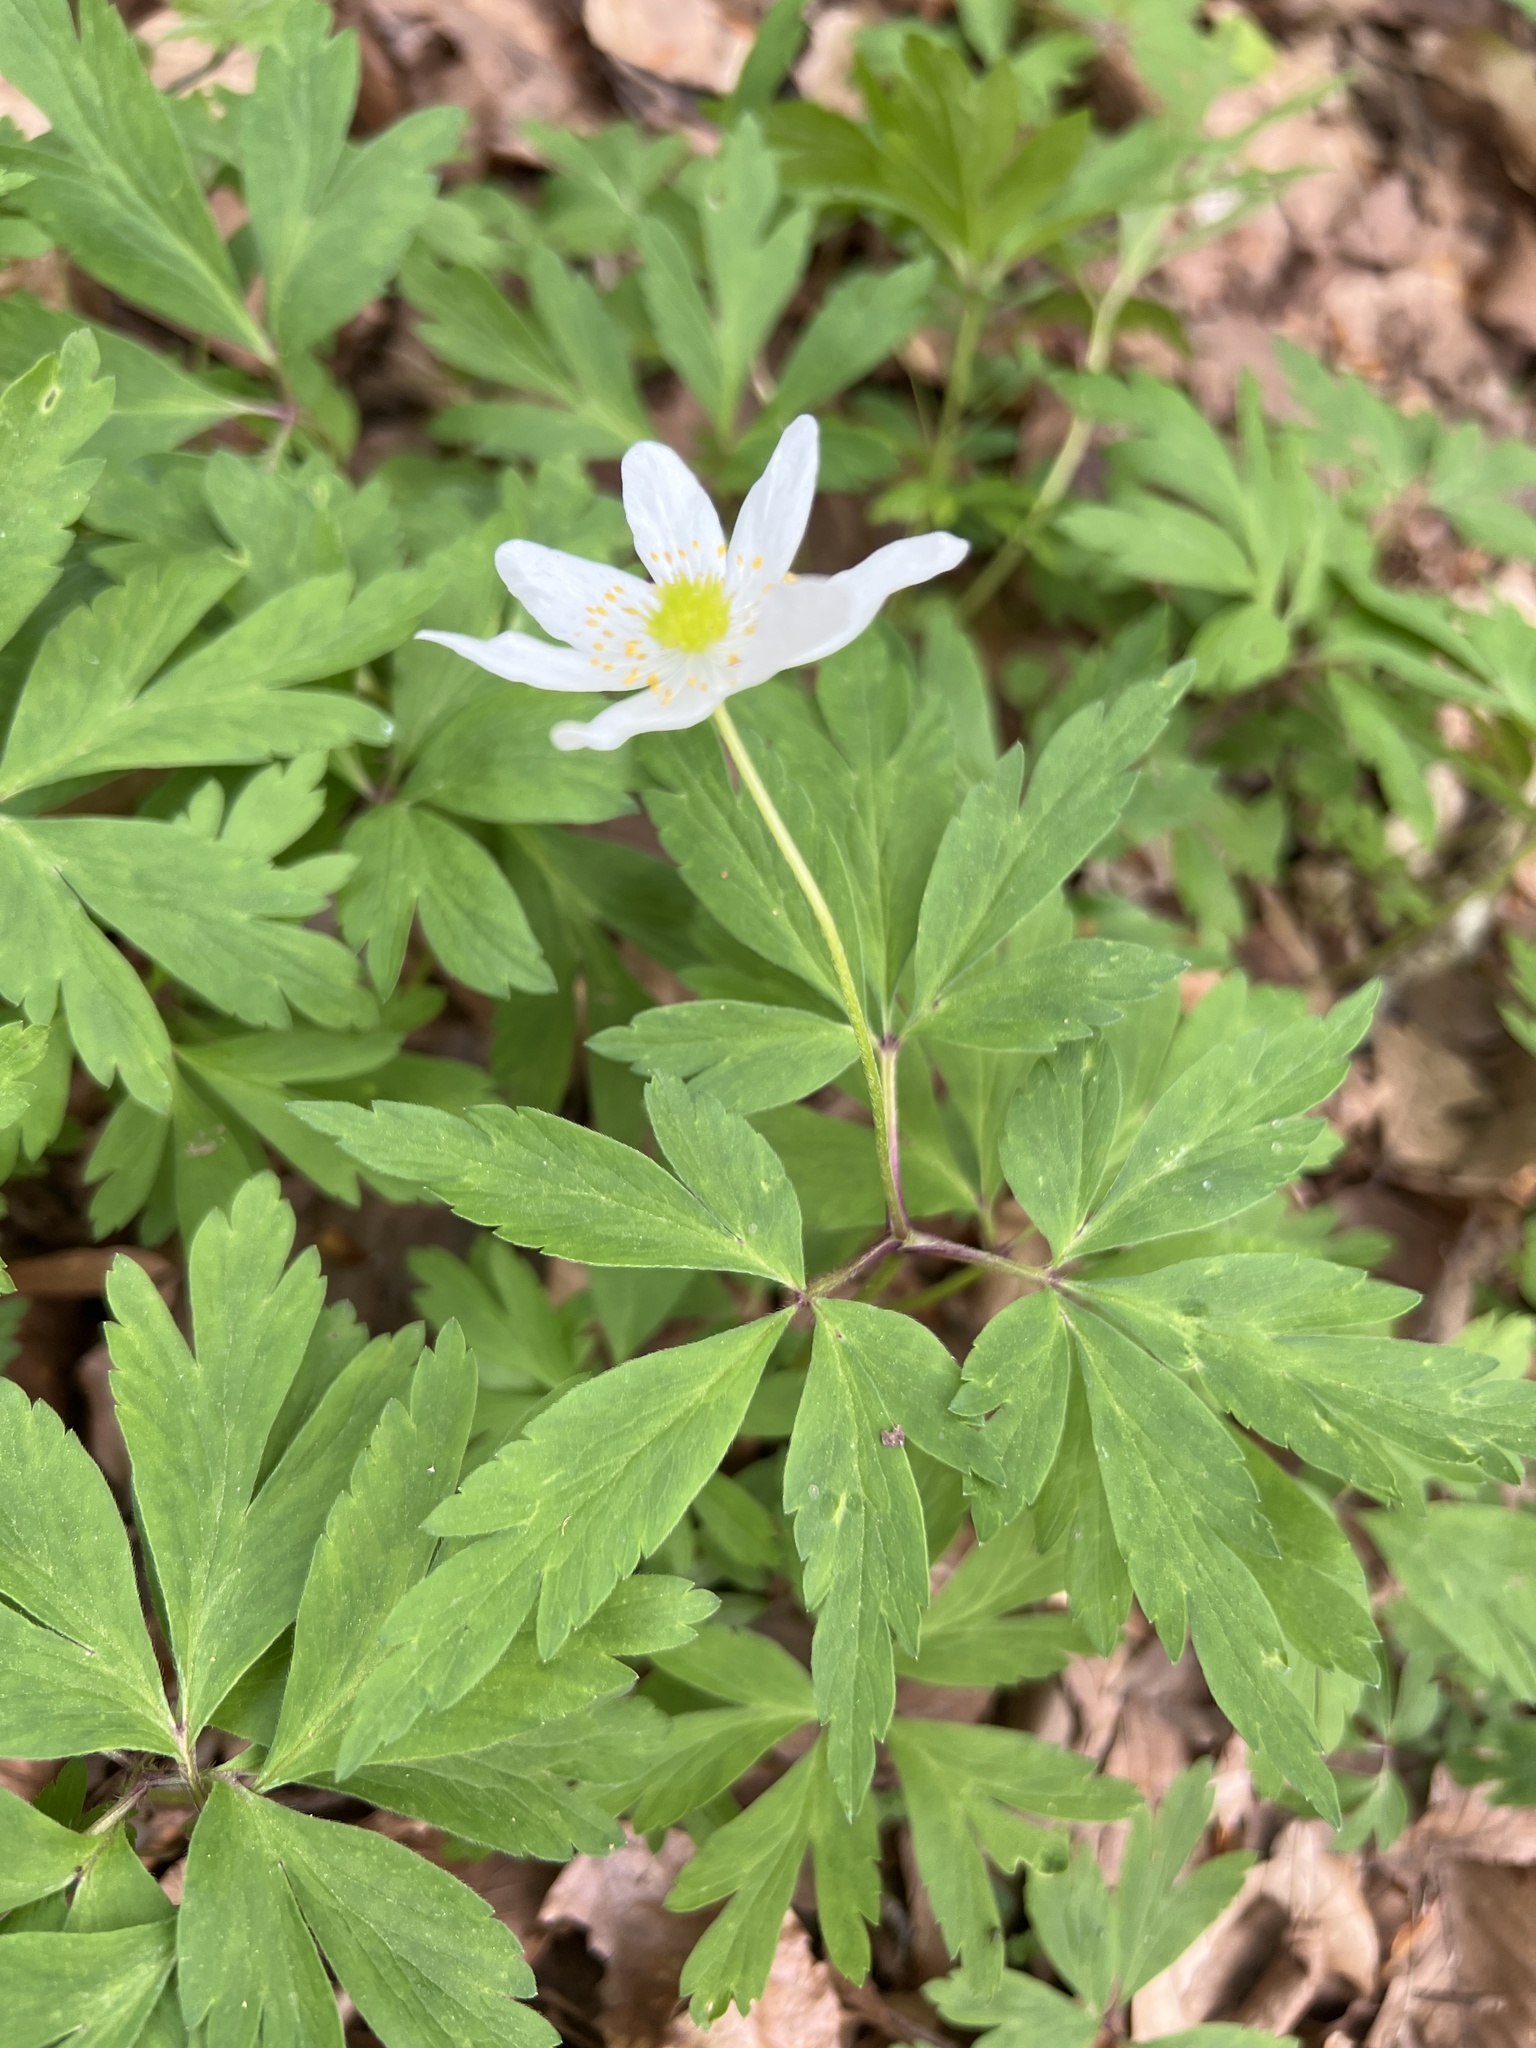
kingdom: Plantae
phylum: Tracheophyta
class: Magnoliopsida
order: Ranunculales
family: Ranunculaceae
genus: Anemone
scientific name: Anemone nemorosa
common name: Wood anemone
